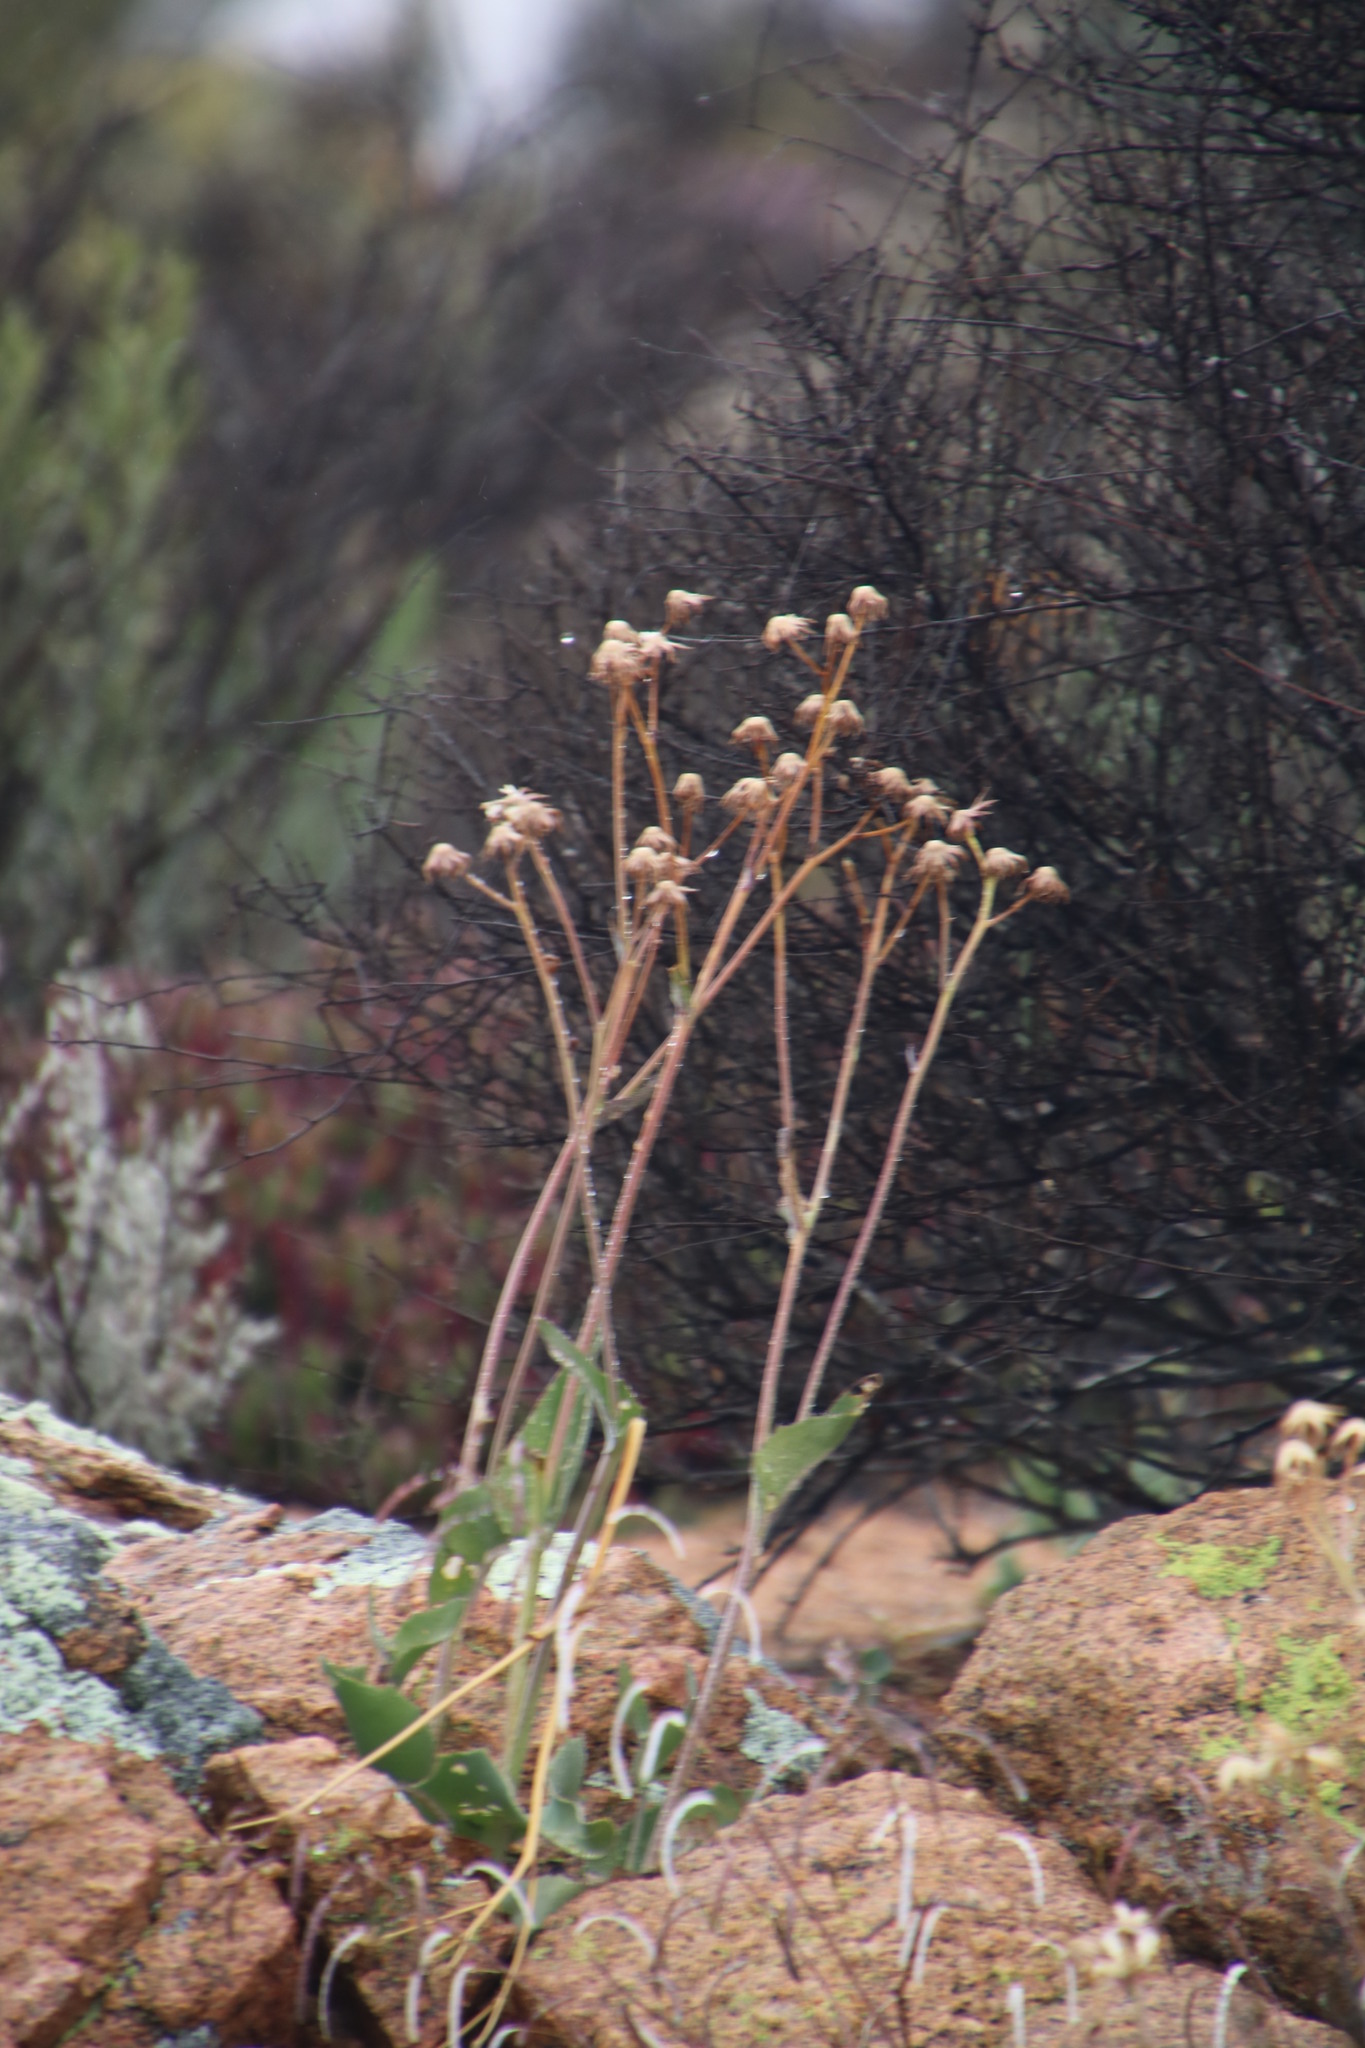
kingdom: Plantae
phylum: Tracheophyta
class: Magnoliopsida
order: Asterales
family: Asteraceae
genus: Othonna
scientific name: Othonna macrophylla
